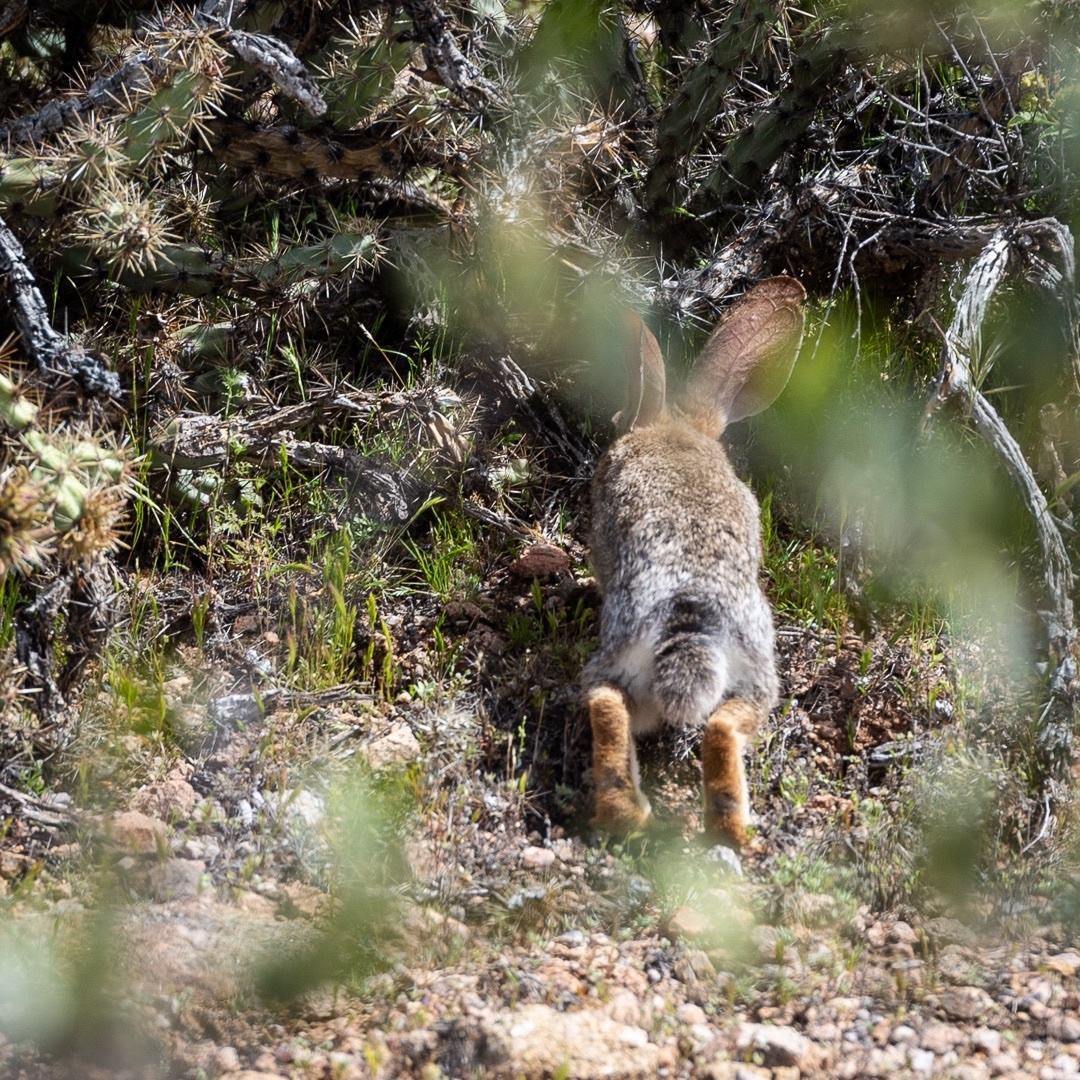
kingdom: Animalia
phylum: Chordata
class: Mammalia
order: Lagomorpha
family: Leporidae
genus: Sylvilagus
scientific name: Sylvilagus audubonii
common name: Desert cottontail
